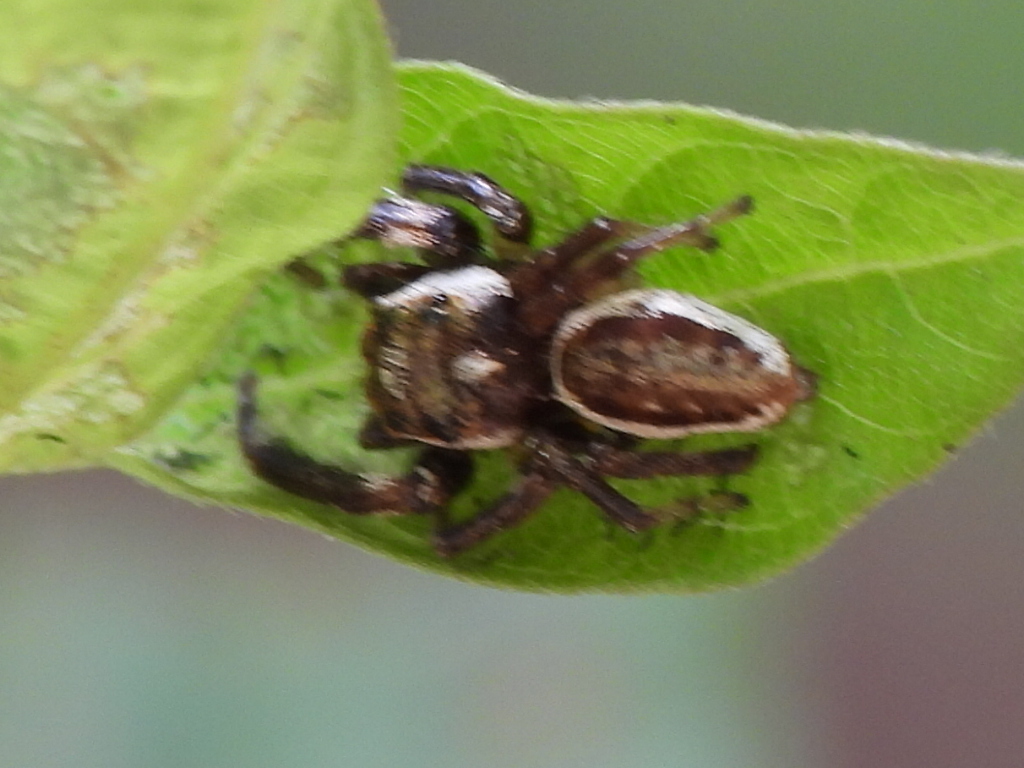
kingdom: Animalia
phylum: Arthropoda
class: Arachnida
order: Araneae
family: Salticidae
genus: Eris
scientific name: Eris militaris
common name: Bronze jumper
